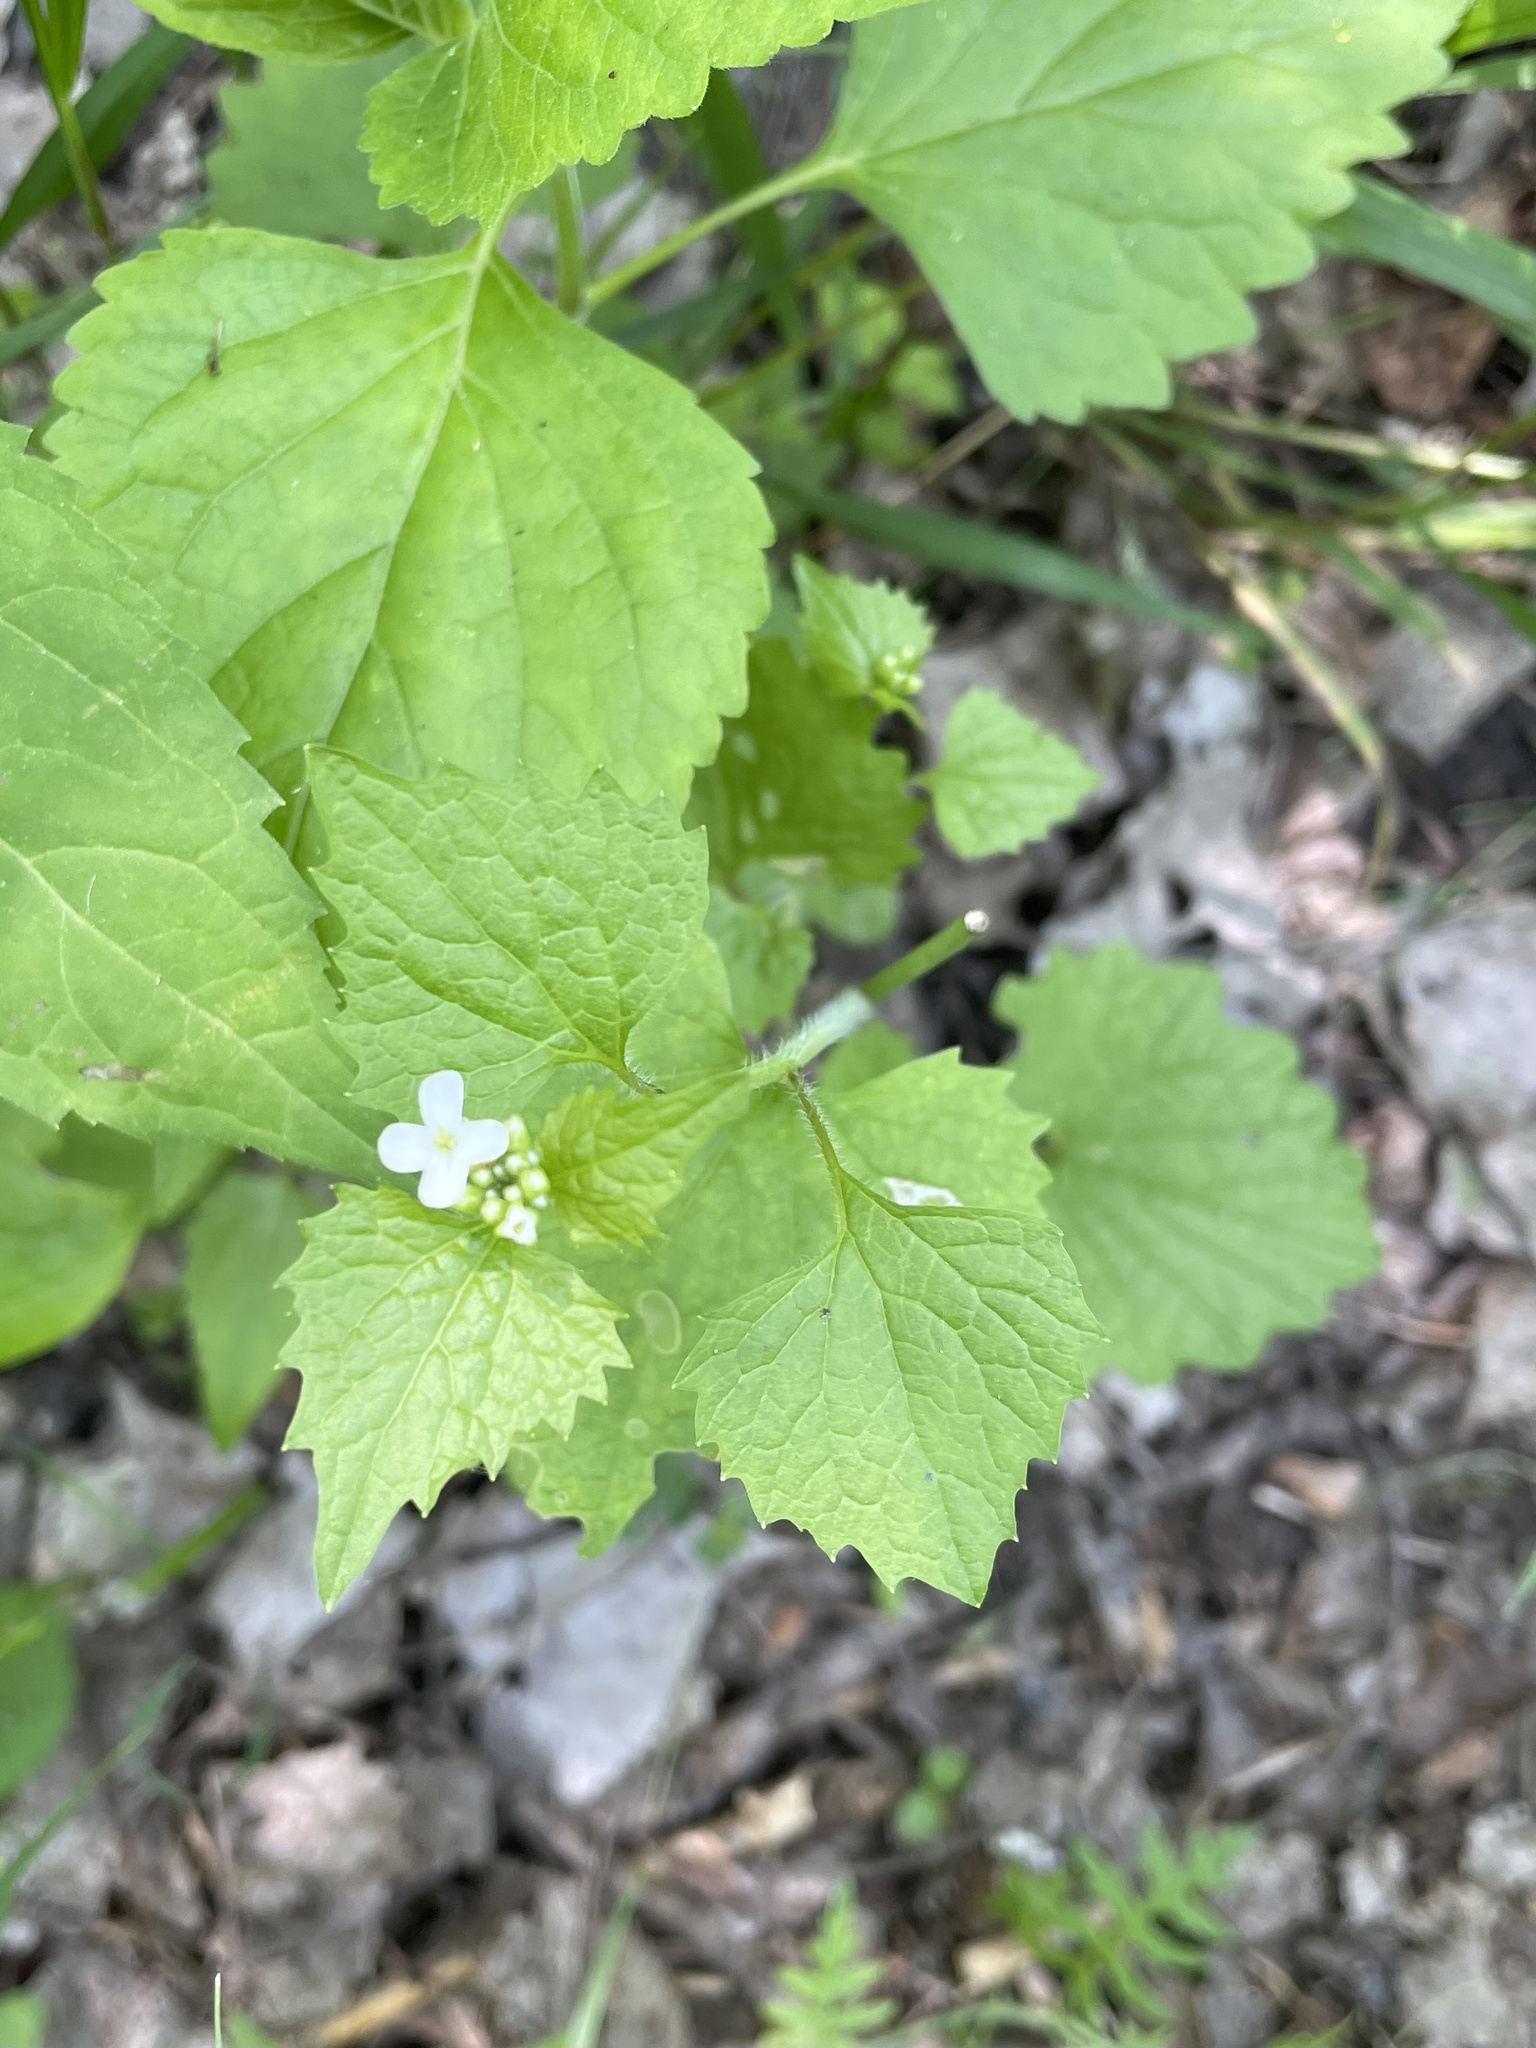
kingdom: Plantae
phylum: Tracheophyta
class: Magnoliopsida
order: Brassicales
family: Brassicaceae
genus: Alliaria
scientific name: Alliaria petiolata
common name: Garlic mustard
